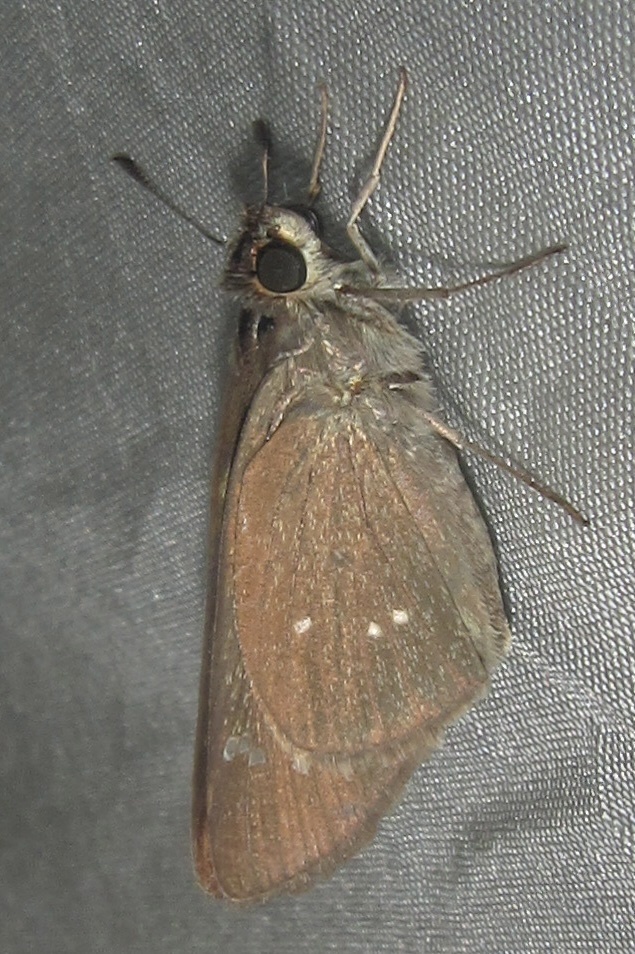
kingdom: Animalia
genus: Torbenlarsenia
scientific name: Torbenlarsenia
